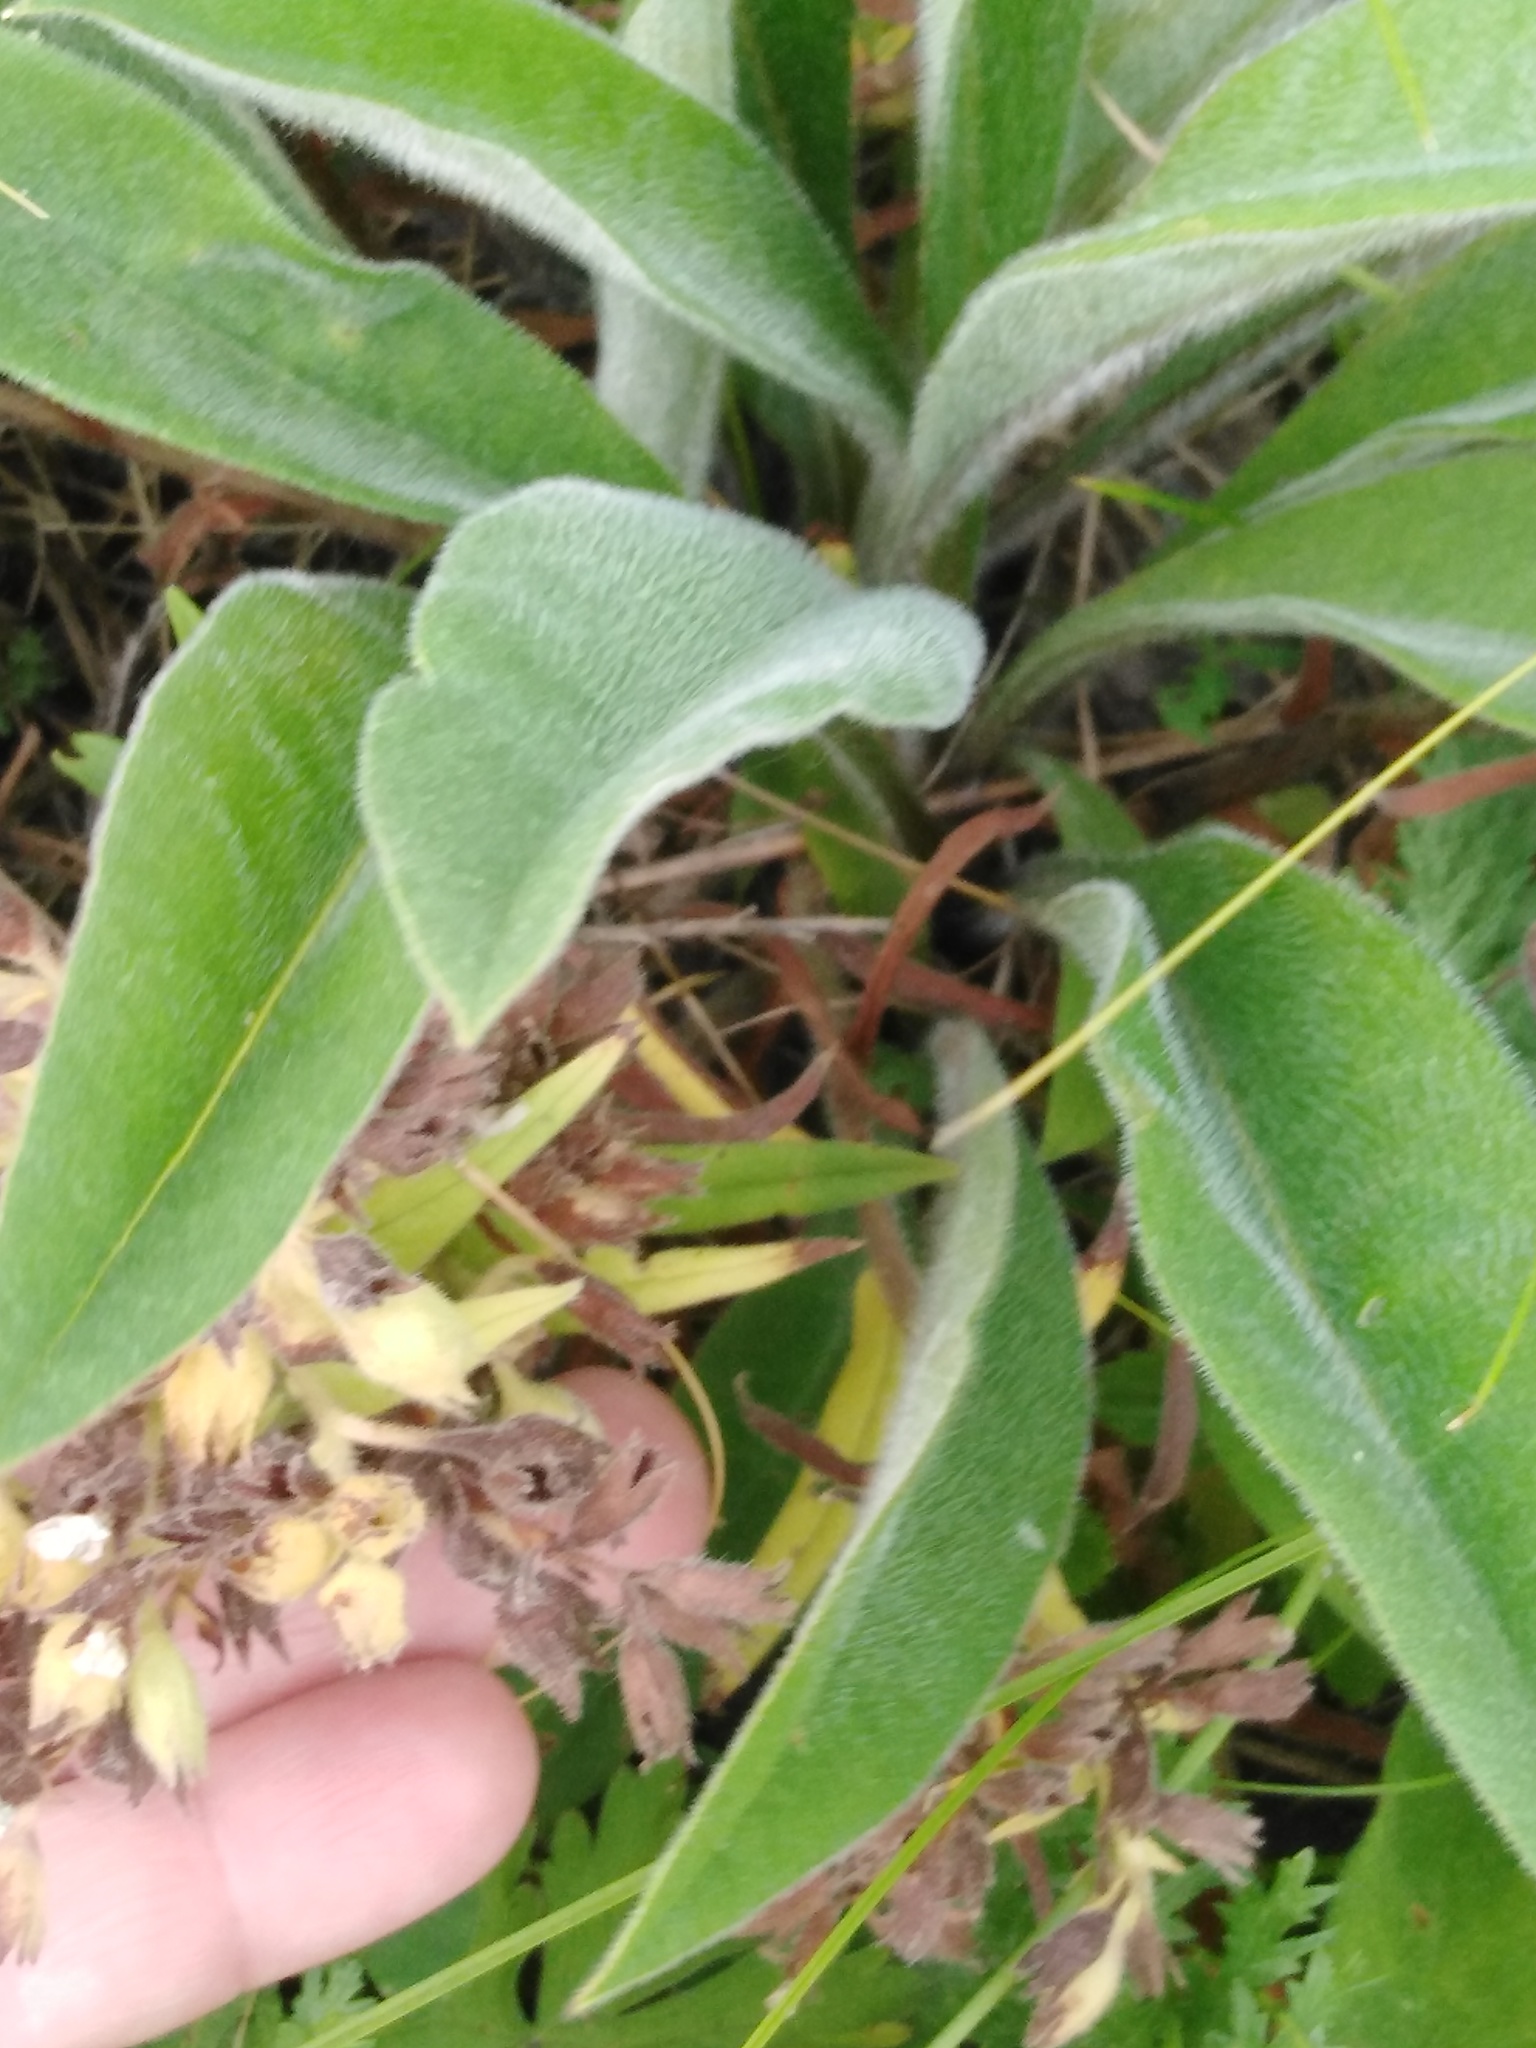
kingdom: Plantae
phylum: Tracheophyta
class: Magnoliopsida
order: Boraginales
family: Boraginaceae
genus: Pulmonaria
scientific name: Pulmonaria angustifolia
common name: Blue cowslip
